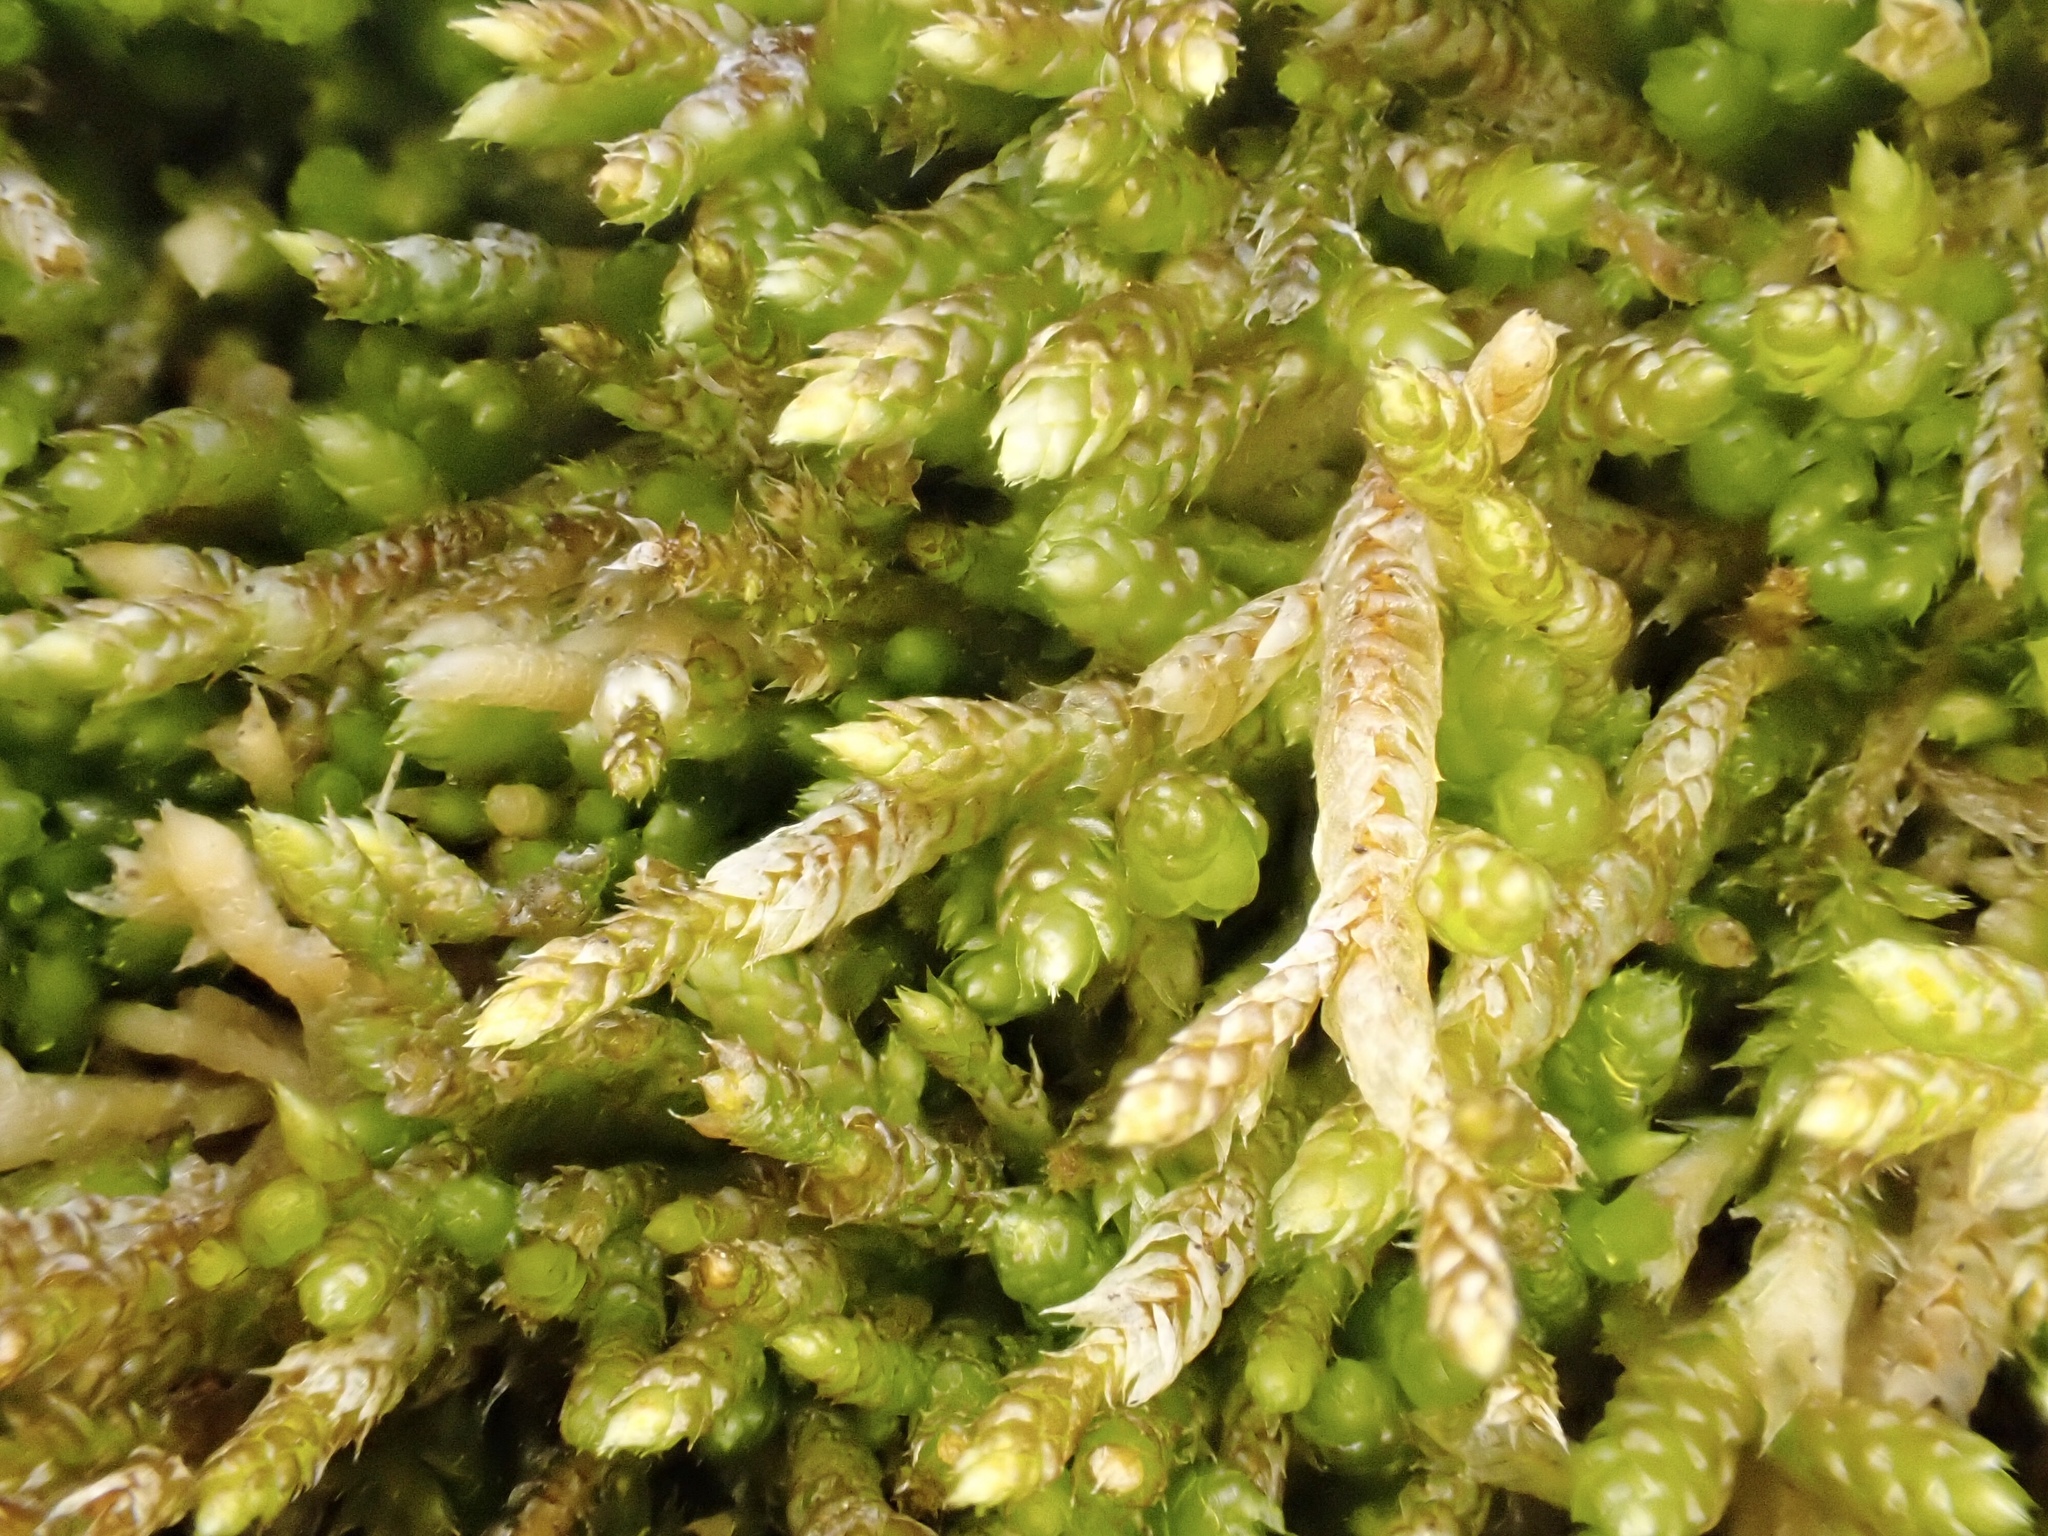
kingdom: Plantae
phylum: Bryophyta
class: Bryopsida
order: Hypnales
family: Brachytheciaceae
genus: Bryoandersonia
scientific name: Bryoandersonia illecebra
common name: Spoon-leaved moss
